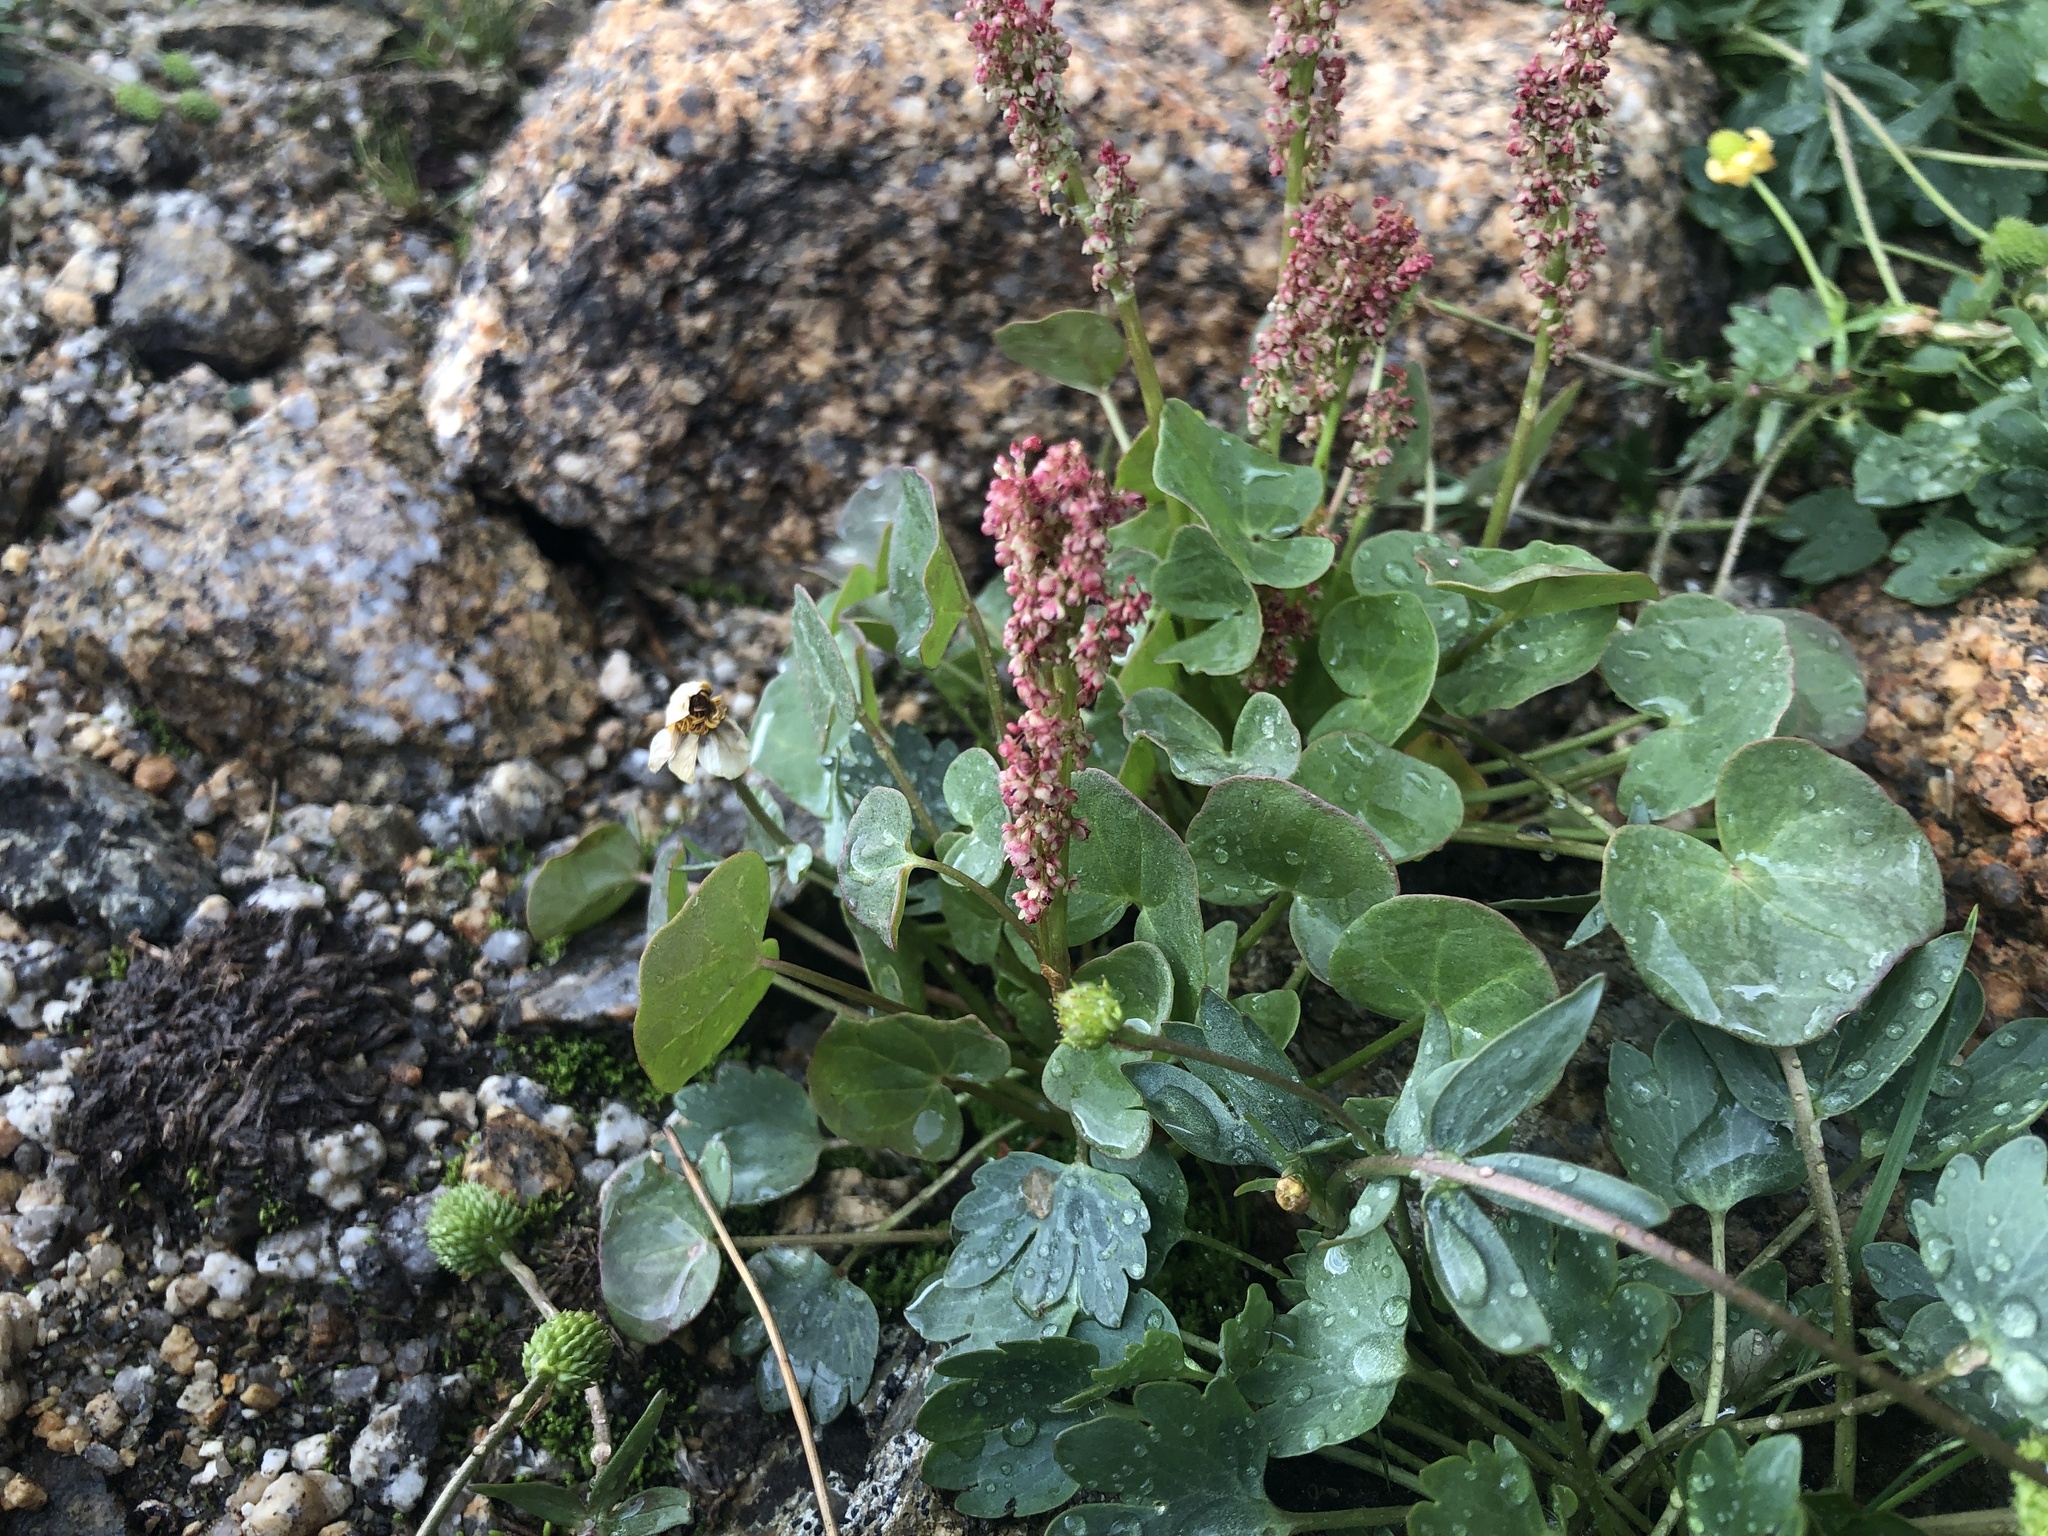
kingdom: Plantae
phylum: Tracheophyta
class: Magnoliopsida
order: Caryophyllales
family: Polygonaceae
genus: Oxyria
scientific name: Oxyria digyna
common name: Alpine mountain-sorrel
